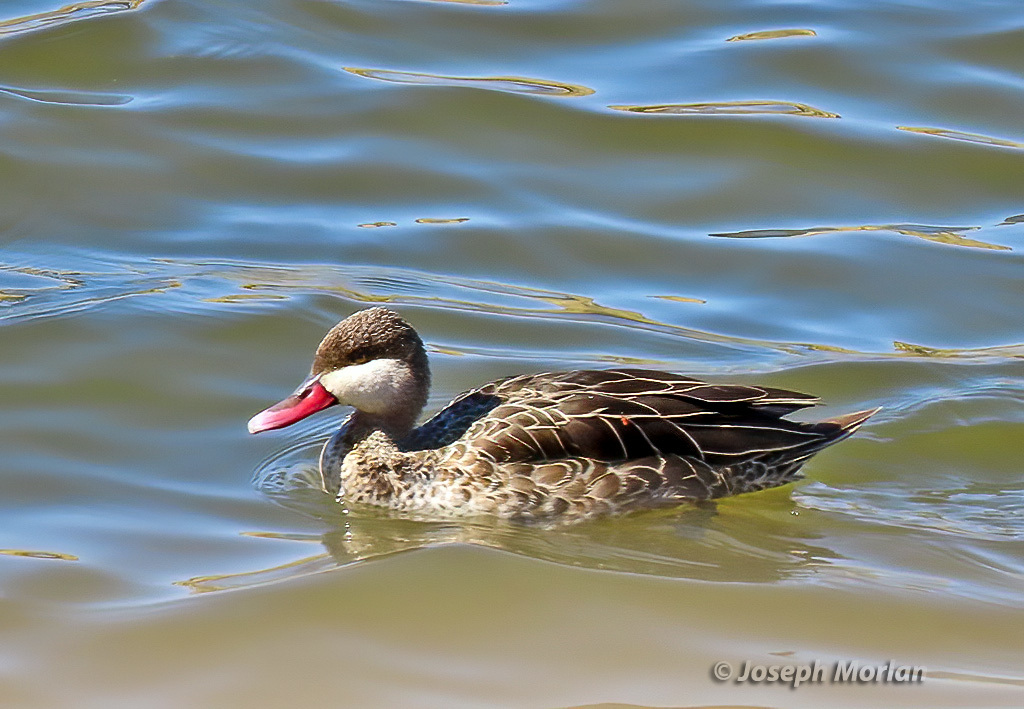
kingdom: Animalia
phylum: Chordata
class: Aves
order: Anseriformes
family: Anatidae
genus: Anas
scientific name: Anas erythrorhyncha
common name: Red-billed teal
